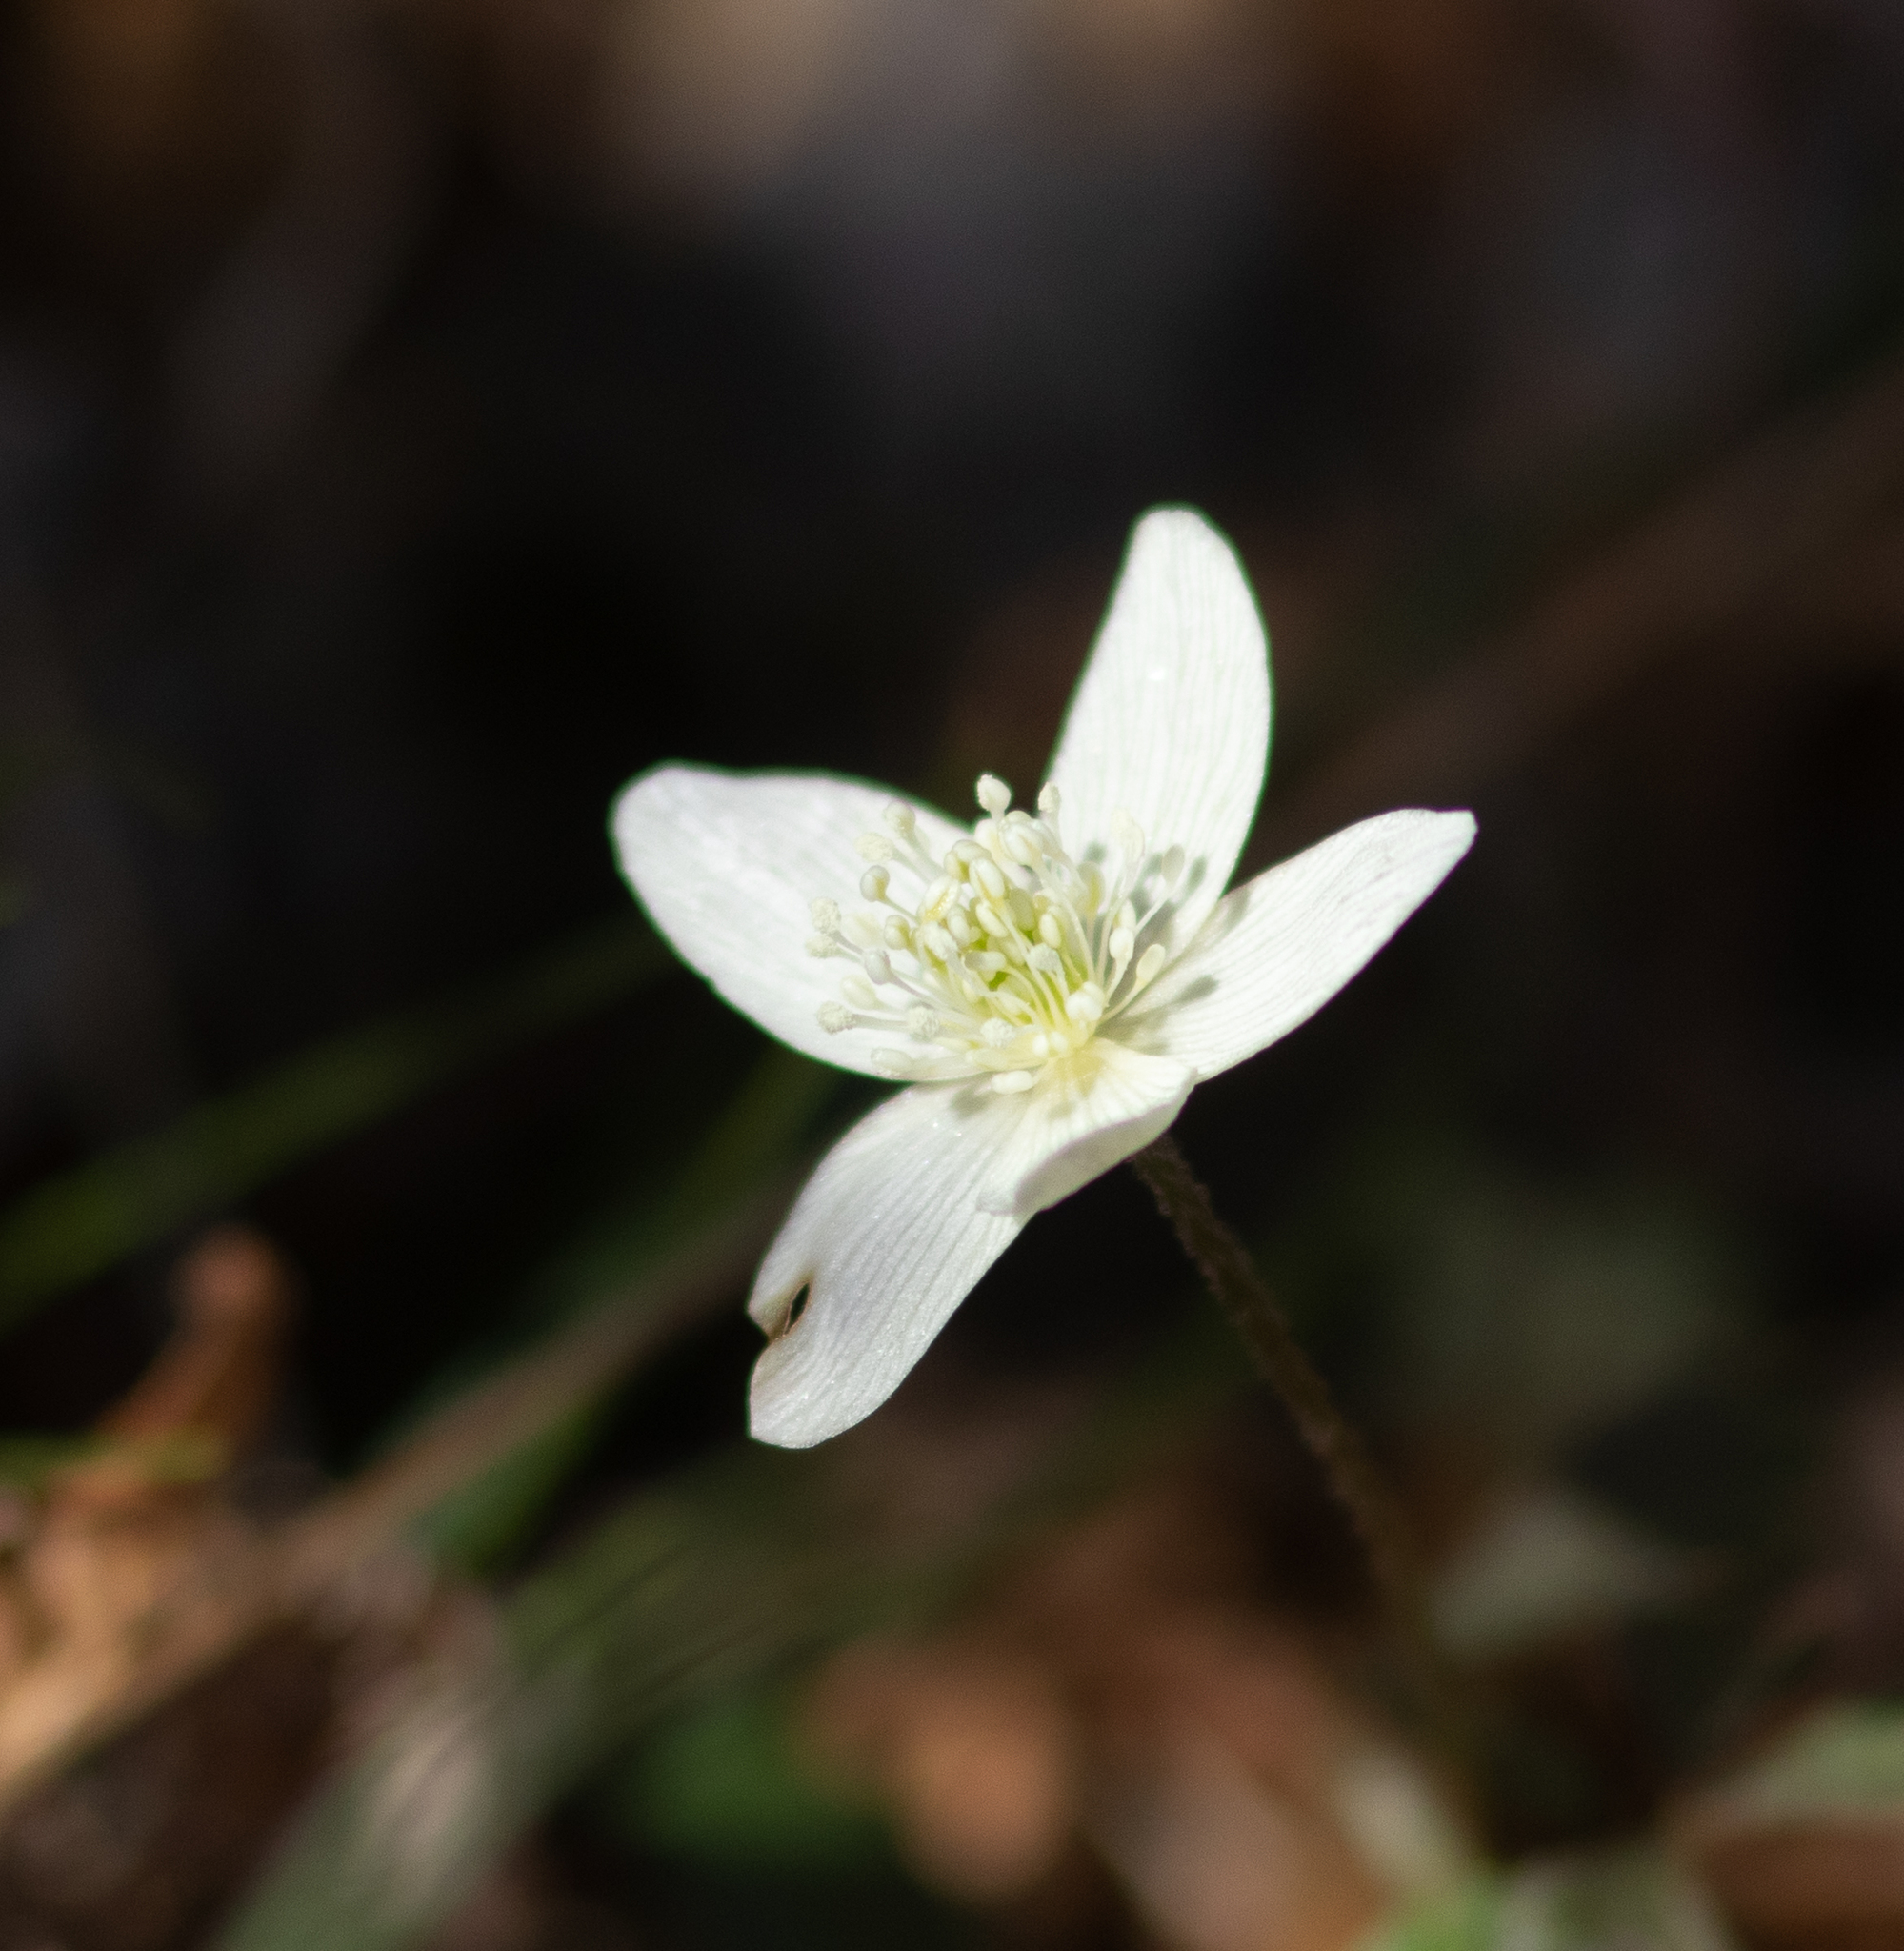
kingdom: Plantae
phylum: Tracheophyta
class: Magnoliopsida
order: Ranunculales
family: Ranunculaceae
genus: Anemone
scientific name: Anemone quinquefolia
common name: Wood anemone
